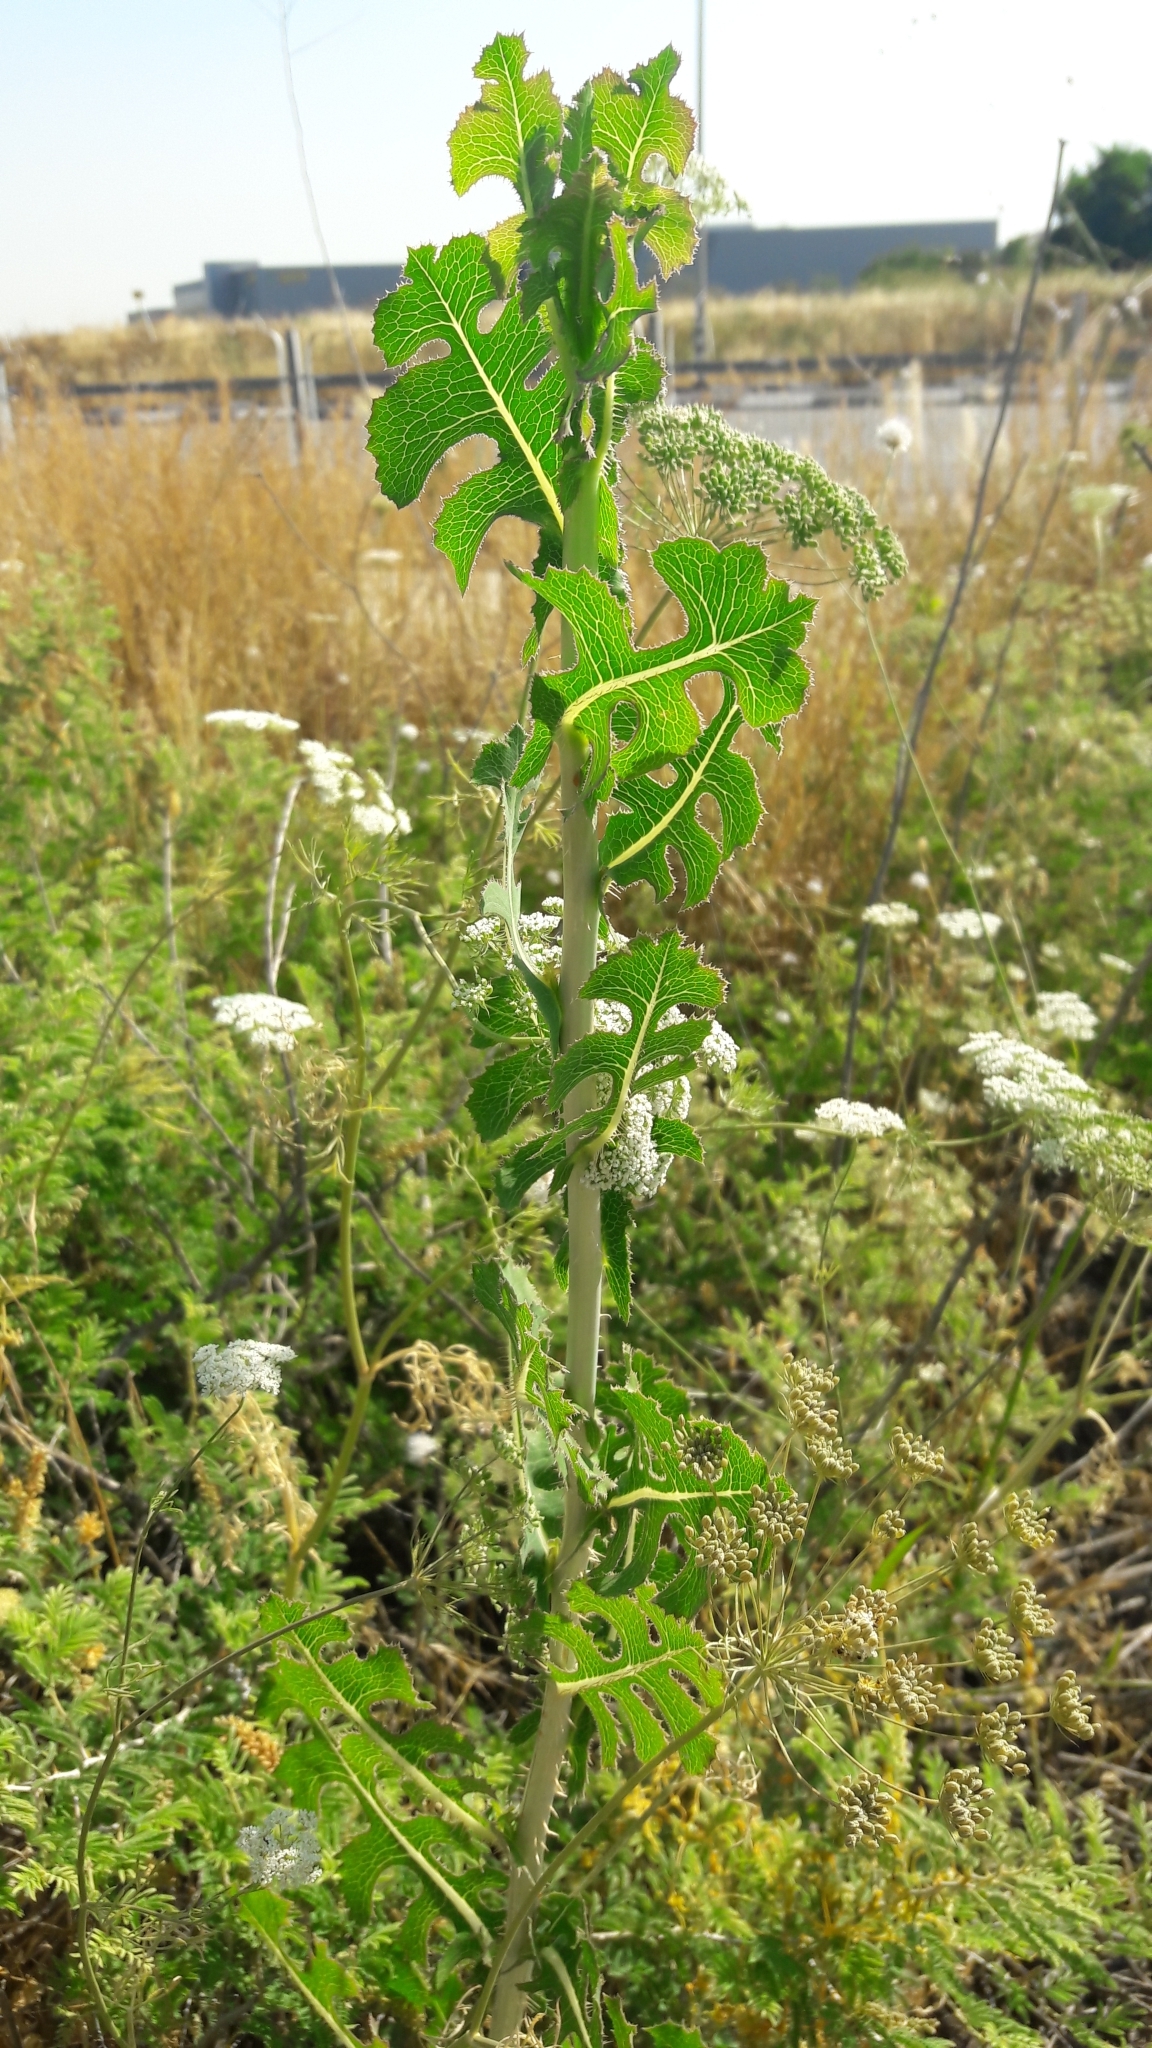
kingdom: Plantae
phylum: Tracheophyta
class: Magnoliopsida
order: Asterales
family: Asteraceae
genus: Lactuca
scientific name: Lactuca serriola
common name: Prickly lettuce
